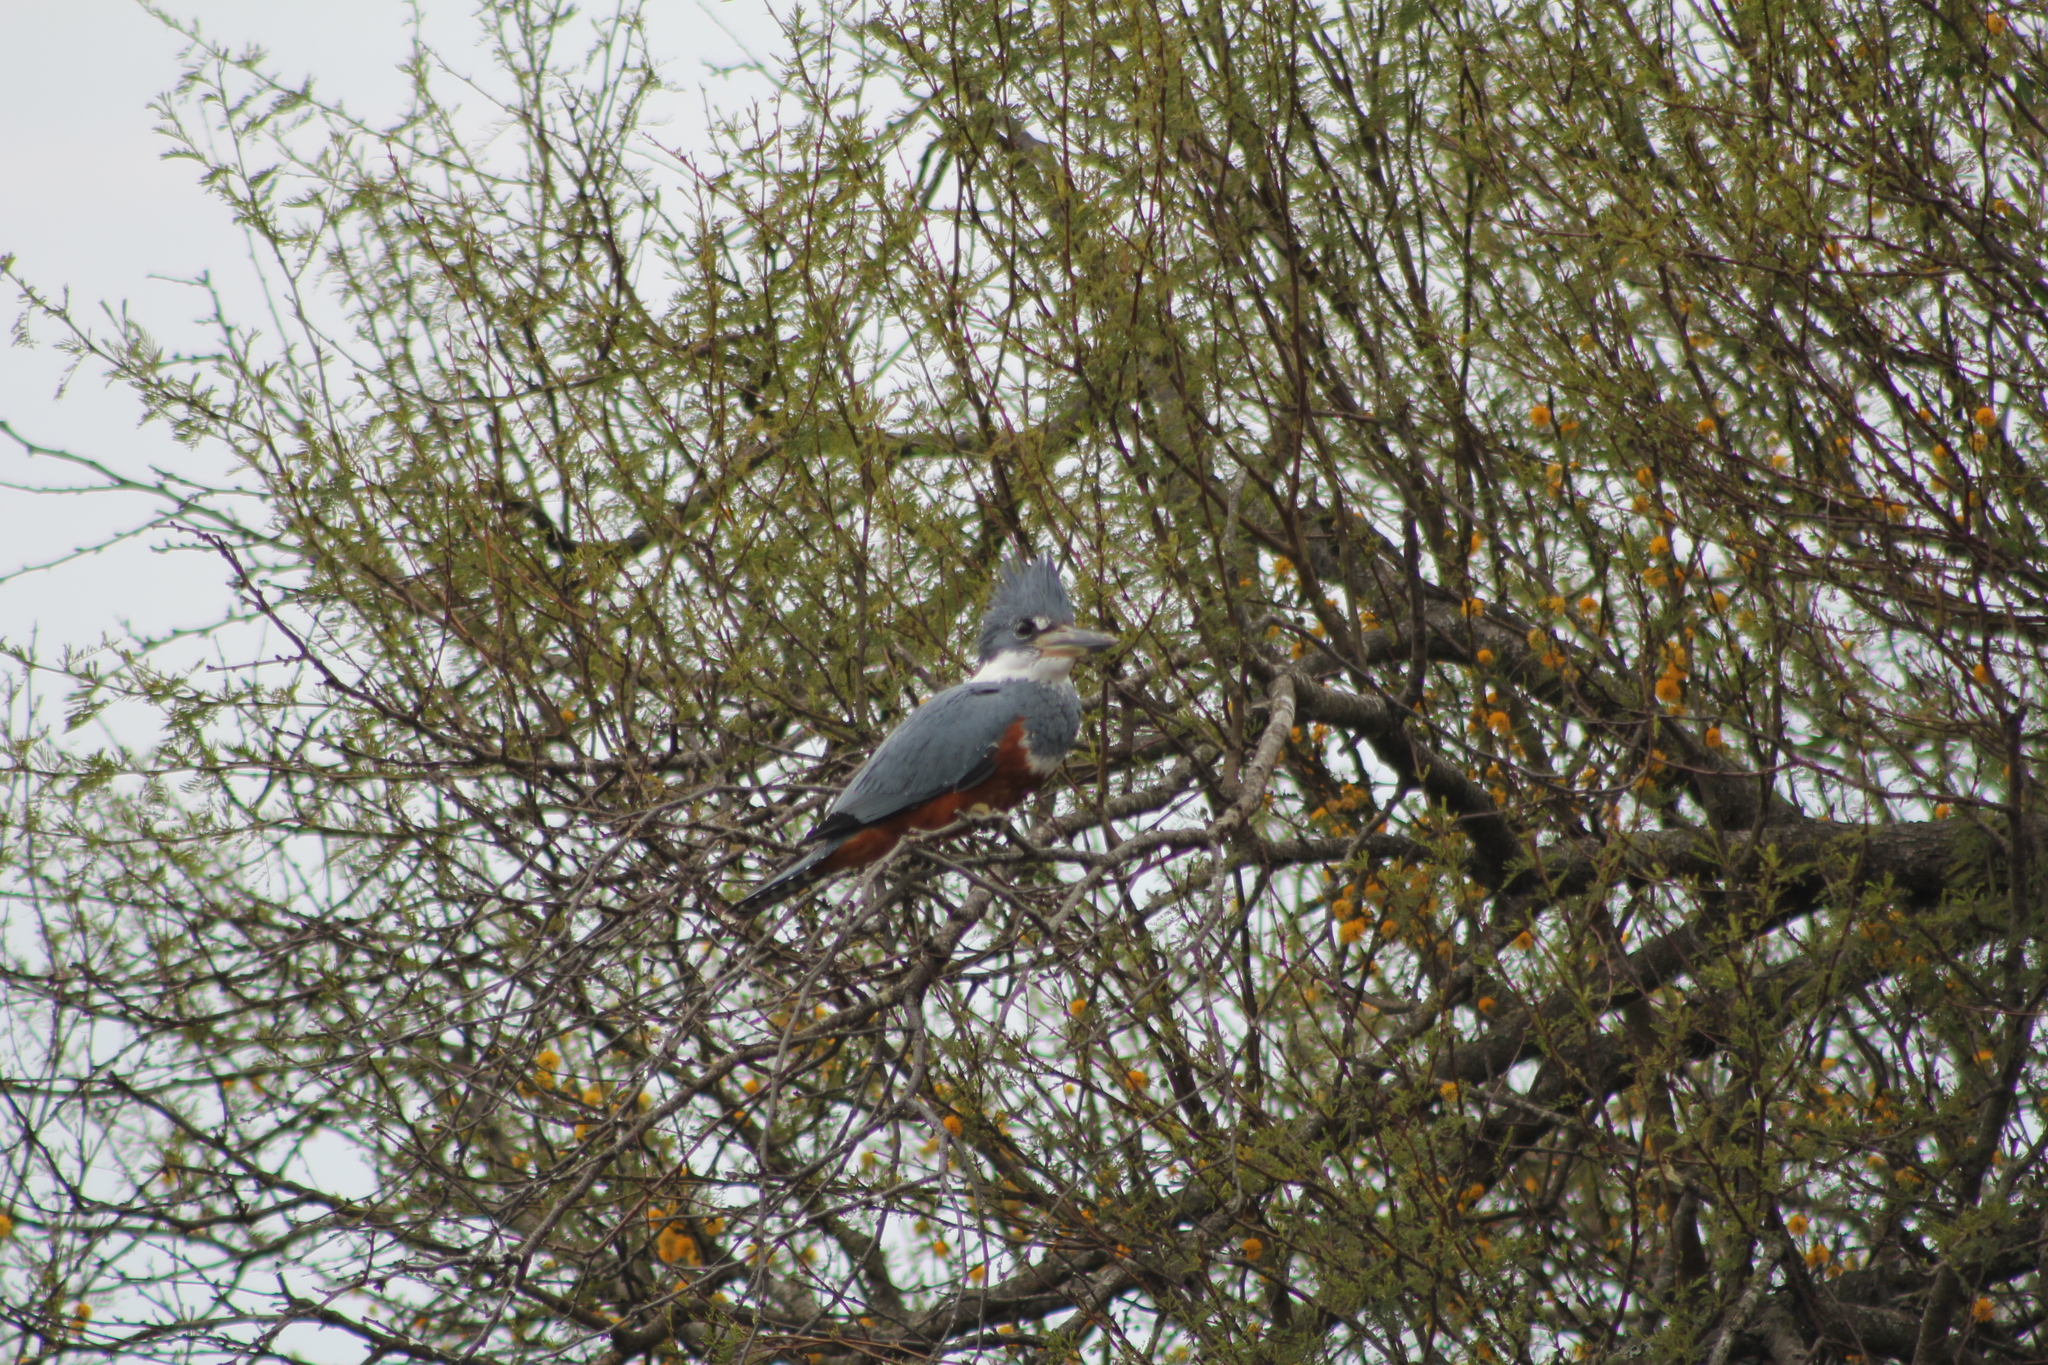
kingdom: Animalia
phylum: Chordata
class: Aves
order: Coraciiformes
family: Alcedinidae
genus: Megaceryle
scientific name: Megaceryle torquata
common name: Ringed kingfisher
